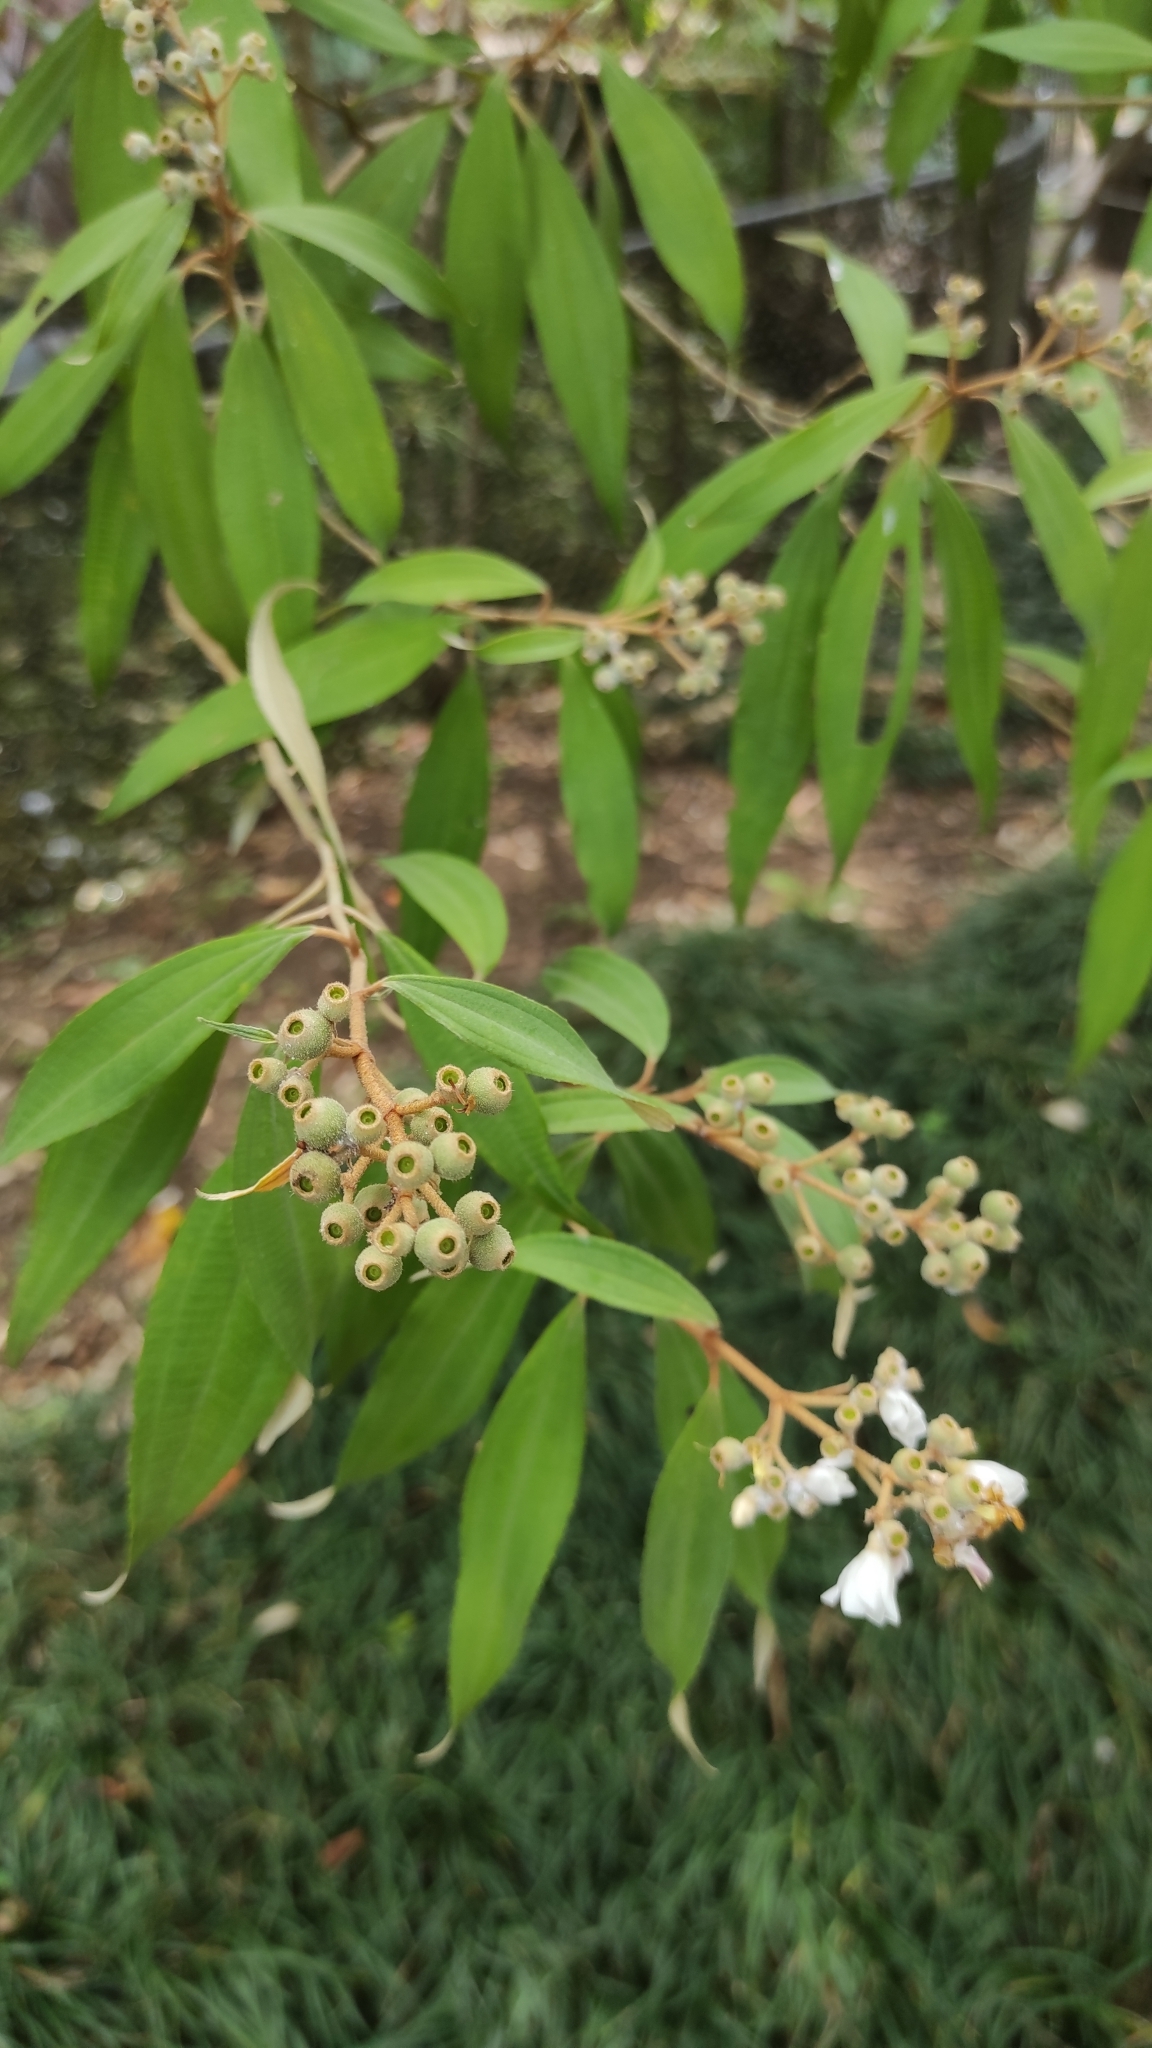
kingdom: Plantae
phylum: Tracheophyta
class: Magnoliopsida
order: Myrtales
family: Melastomataceae
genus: Miconia
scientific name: Miconia xalapensis
